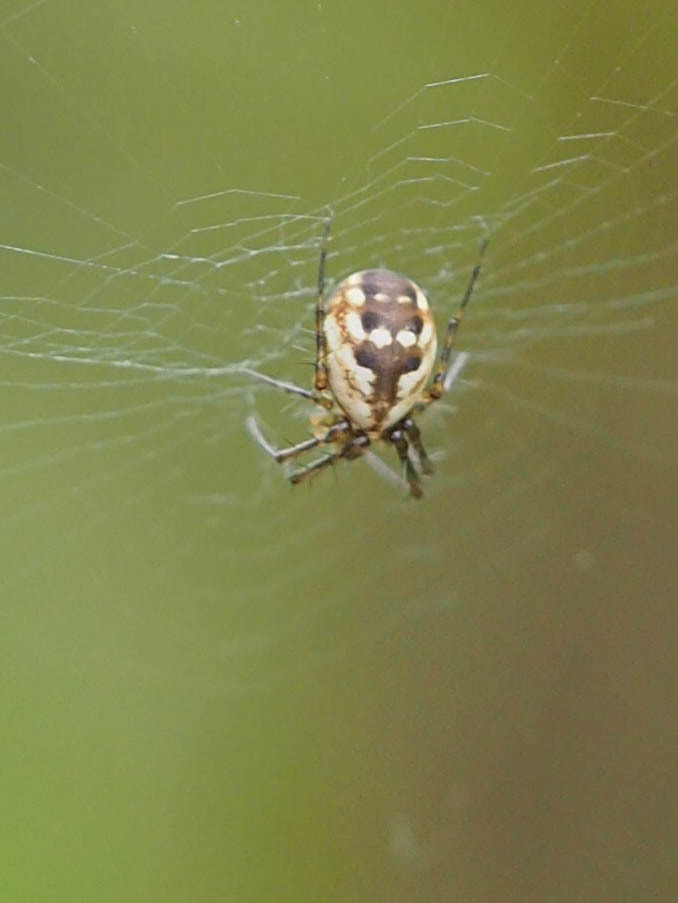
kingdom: Animalia
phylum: Arthropoda
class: Arachnida
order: Araneae
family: Araneidae
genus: Mangora
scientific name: Mangora placida
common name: Tuft-legged orbweaver
